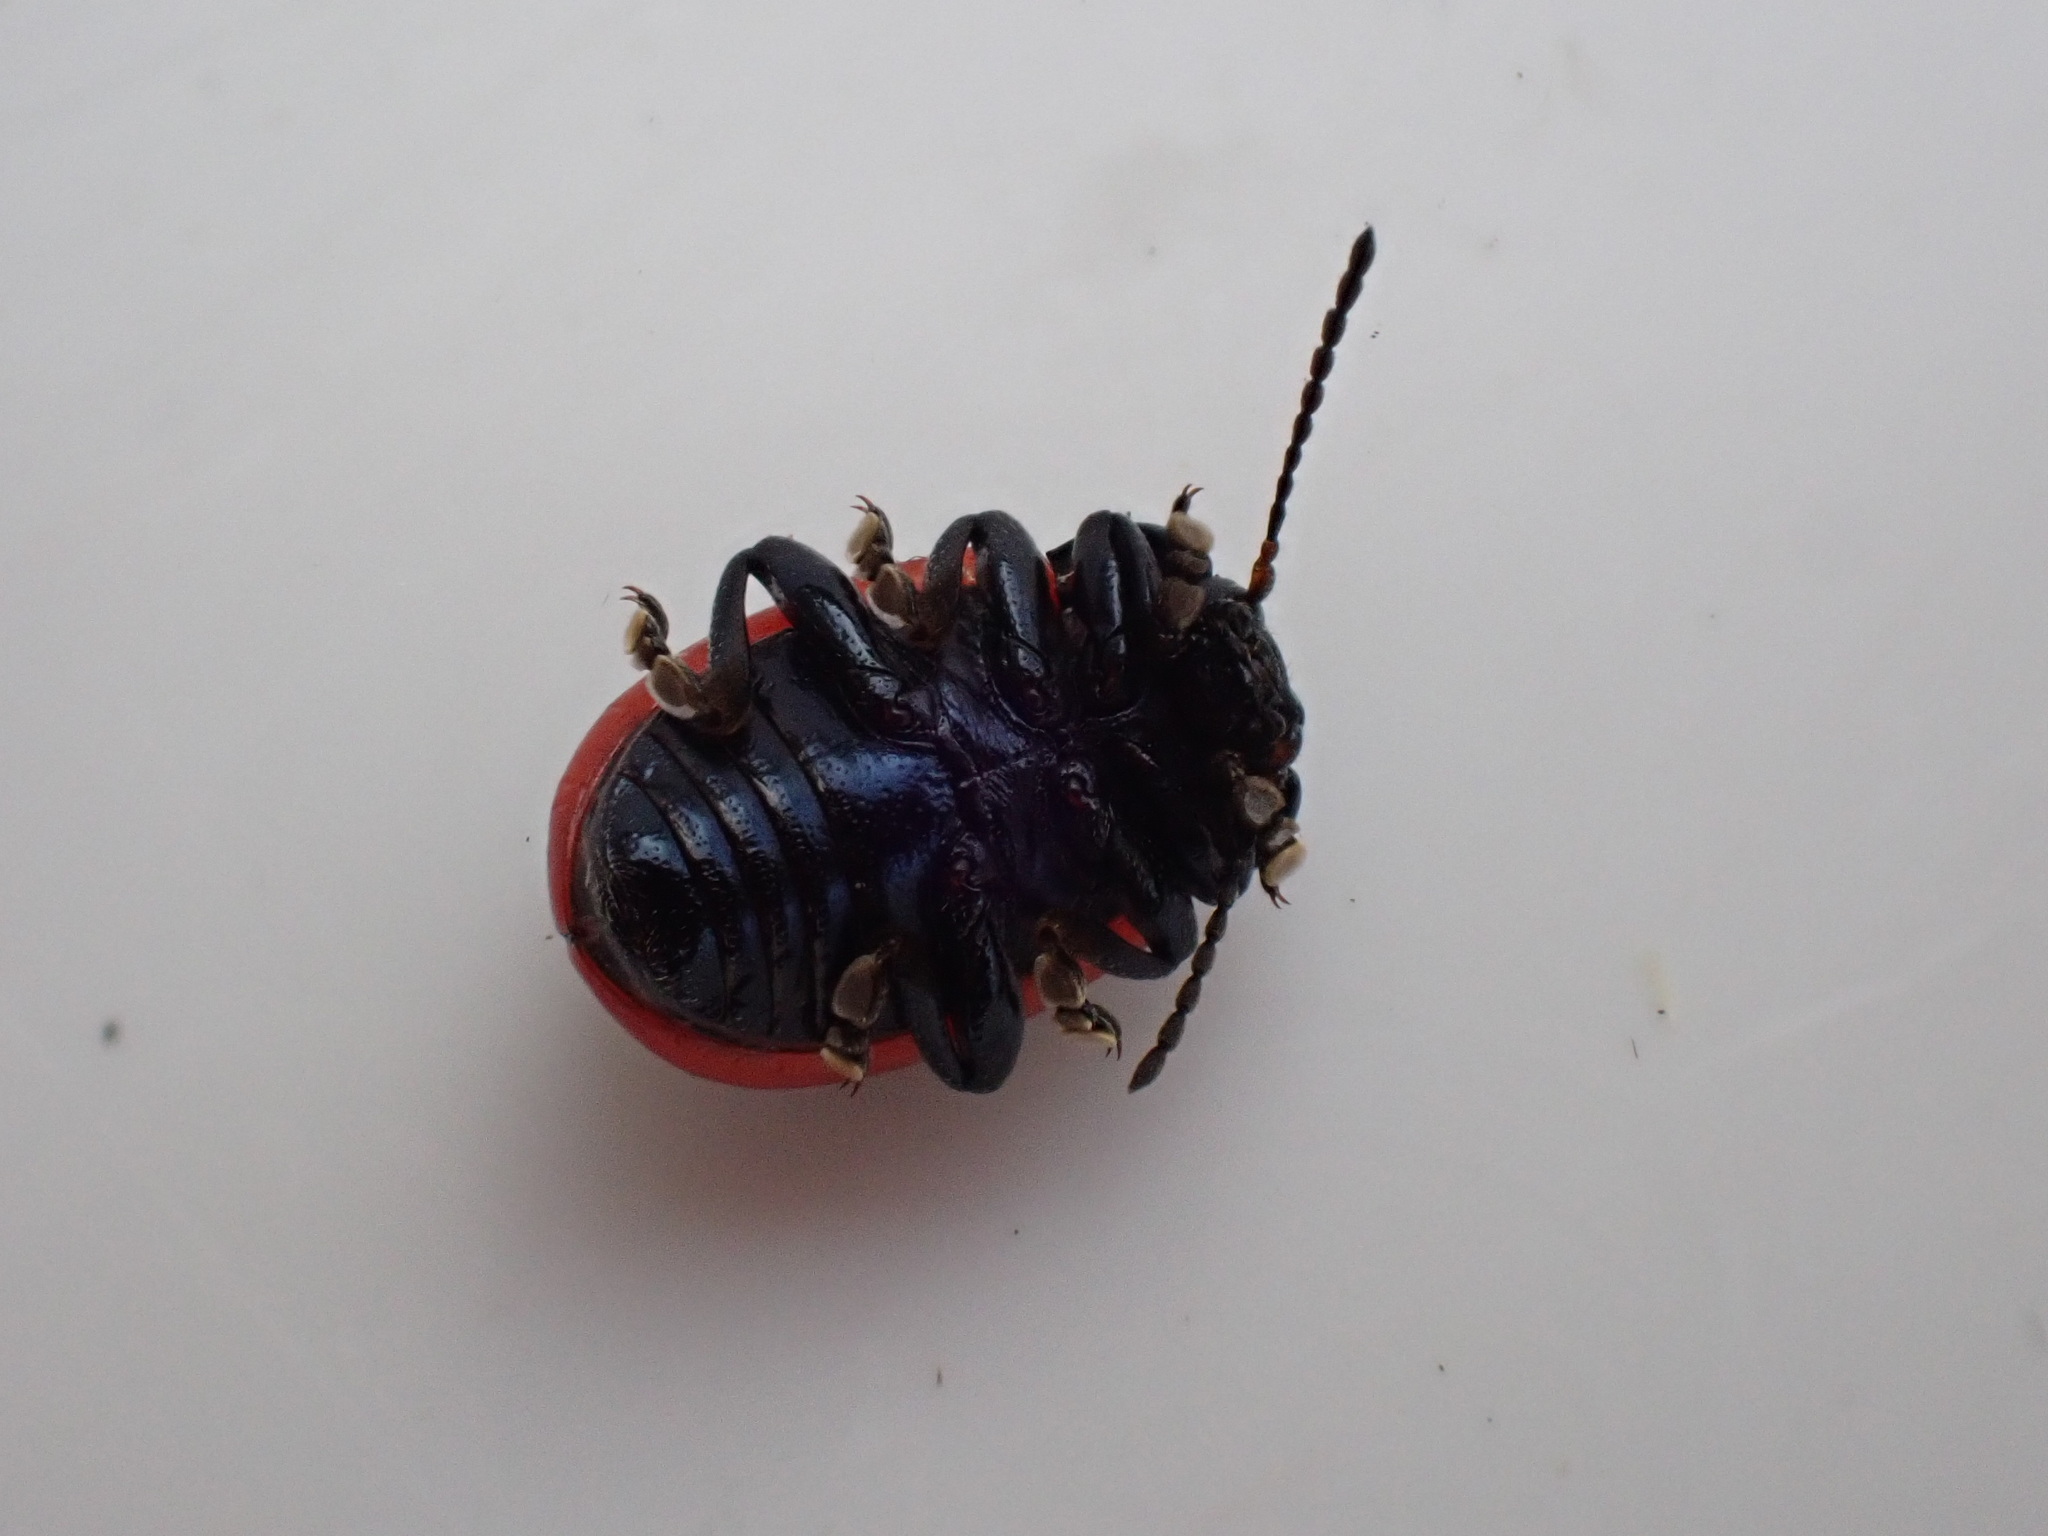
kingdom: Animalia
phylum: Arthropoda
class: Insecta
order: Coleoptera
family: Chrysomelidae
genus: Chrysolina
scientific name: Chrysolina sanguinolenta
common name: Toadflax leaf beetle
